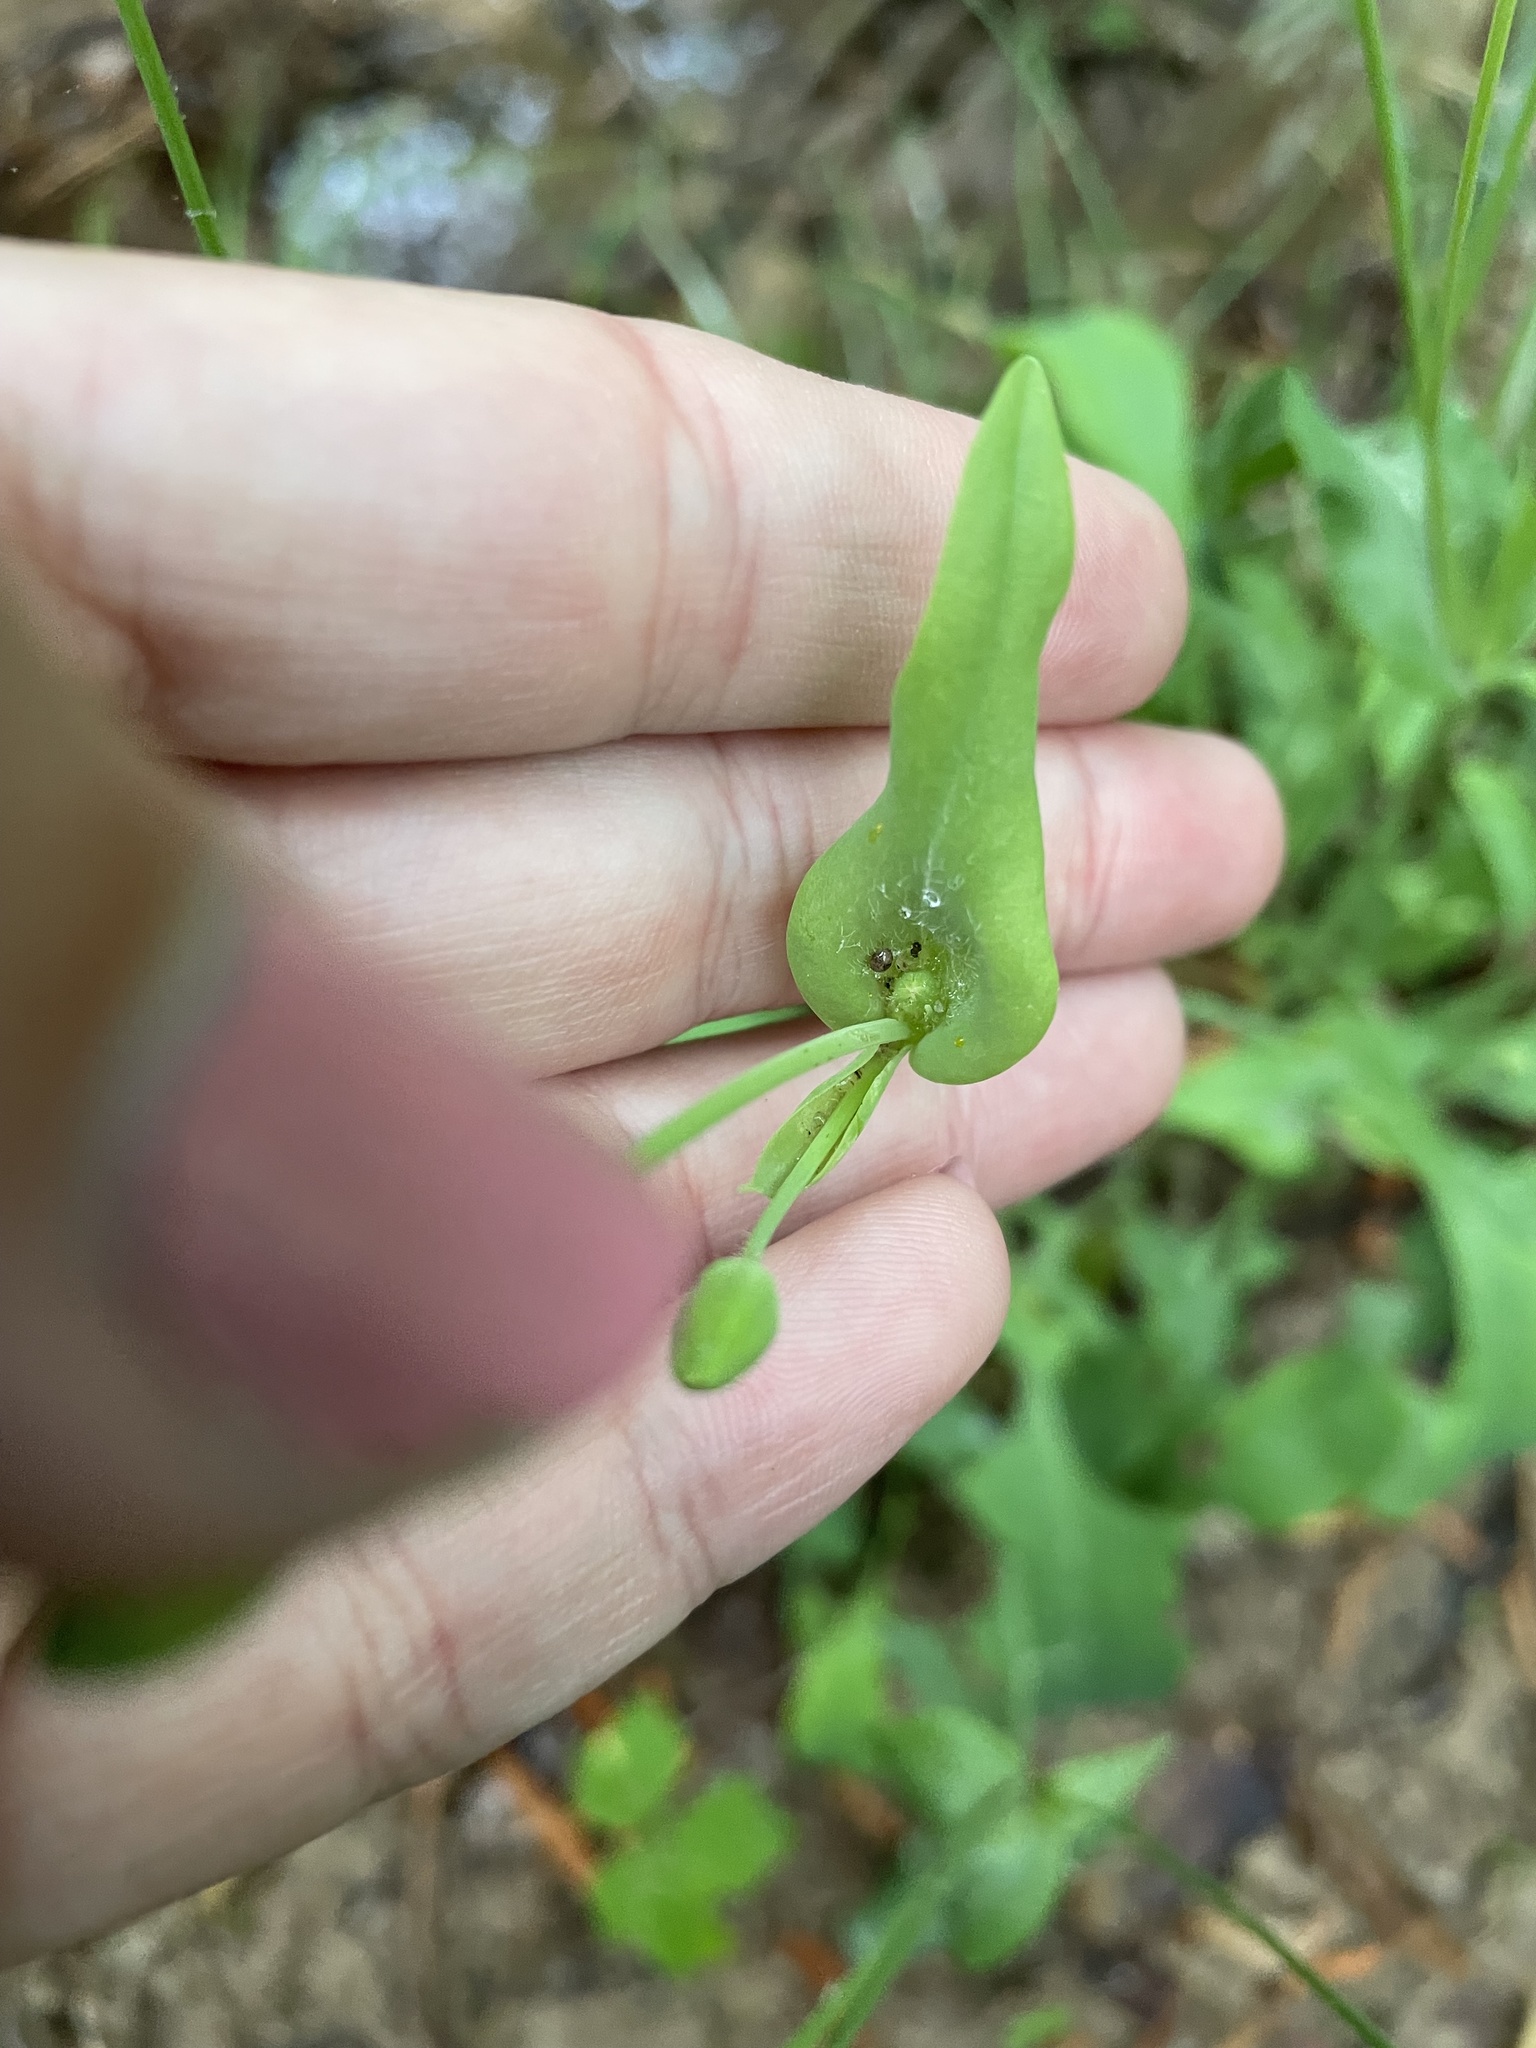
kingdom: Plantae
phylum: Tracheophyta
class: Magnoliopsida
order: Asterales
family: Asteraceae
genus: Krigia
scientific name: Krigia biflora
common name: Orange dwarf-dandelion
